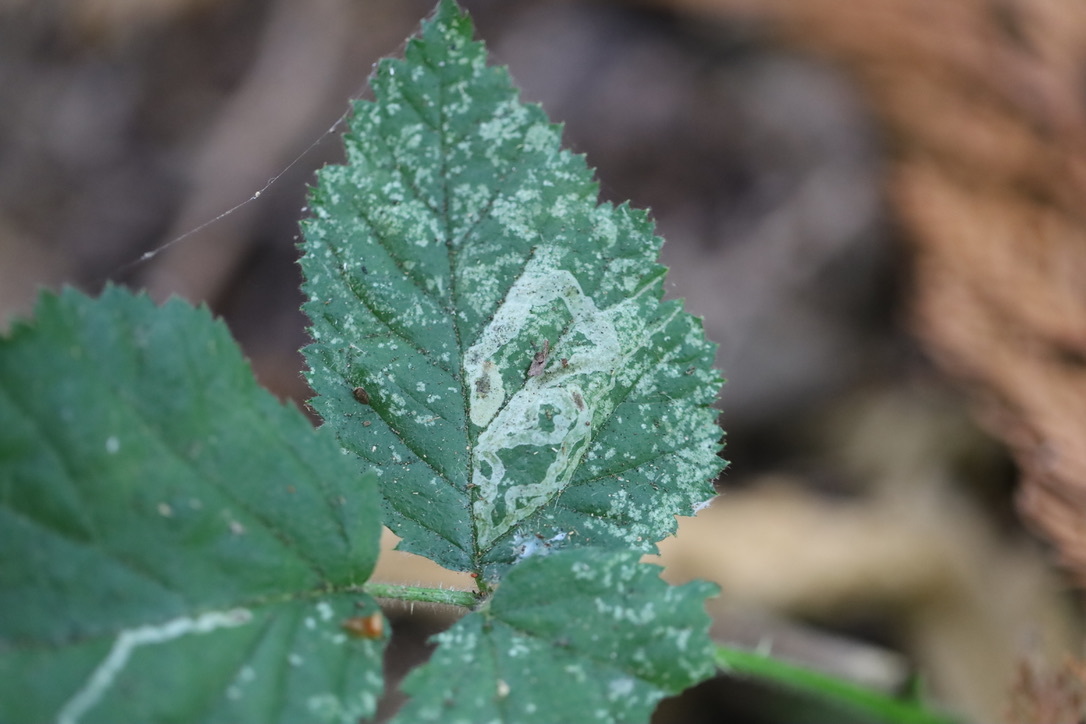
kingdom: Animalia
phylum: Arthropoda
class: Insecta
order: Diptera
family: Agromyzidae
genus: Agromyza
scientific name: Agromyza vockerothi
